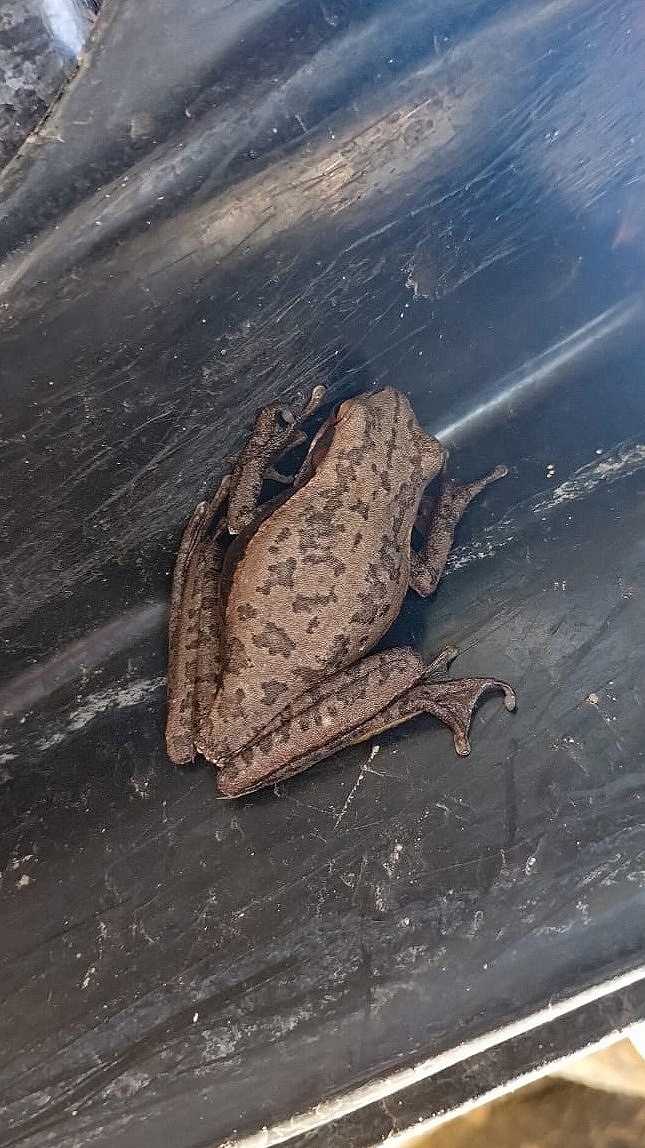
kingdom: Animalia
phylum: Chordata
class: Amphibia
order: Anura
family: Hylidae
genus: Boana
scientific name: Boana pulchella
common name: Montevideo treefrog
